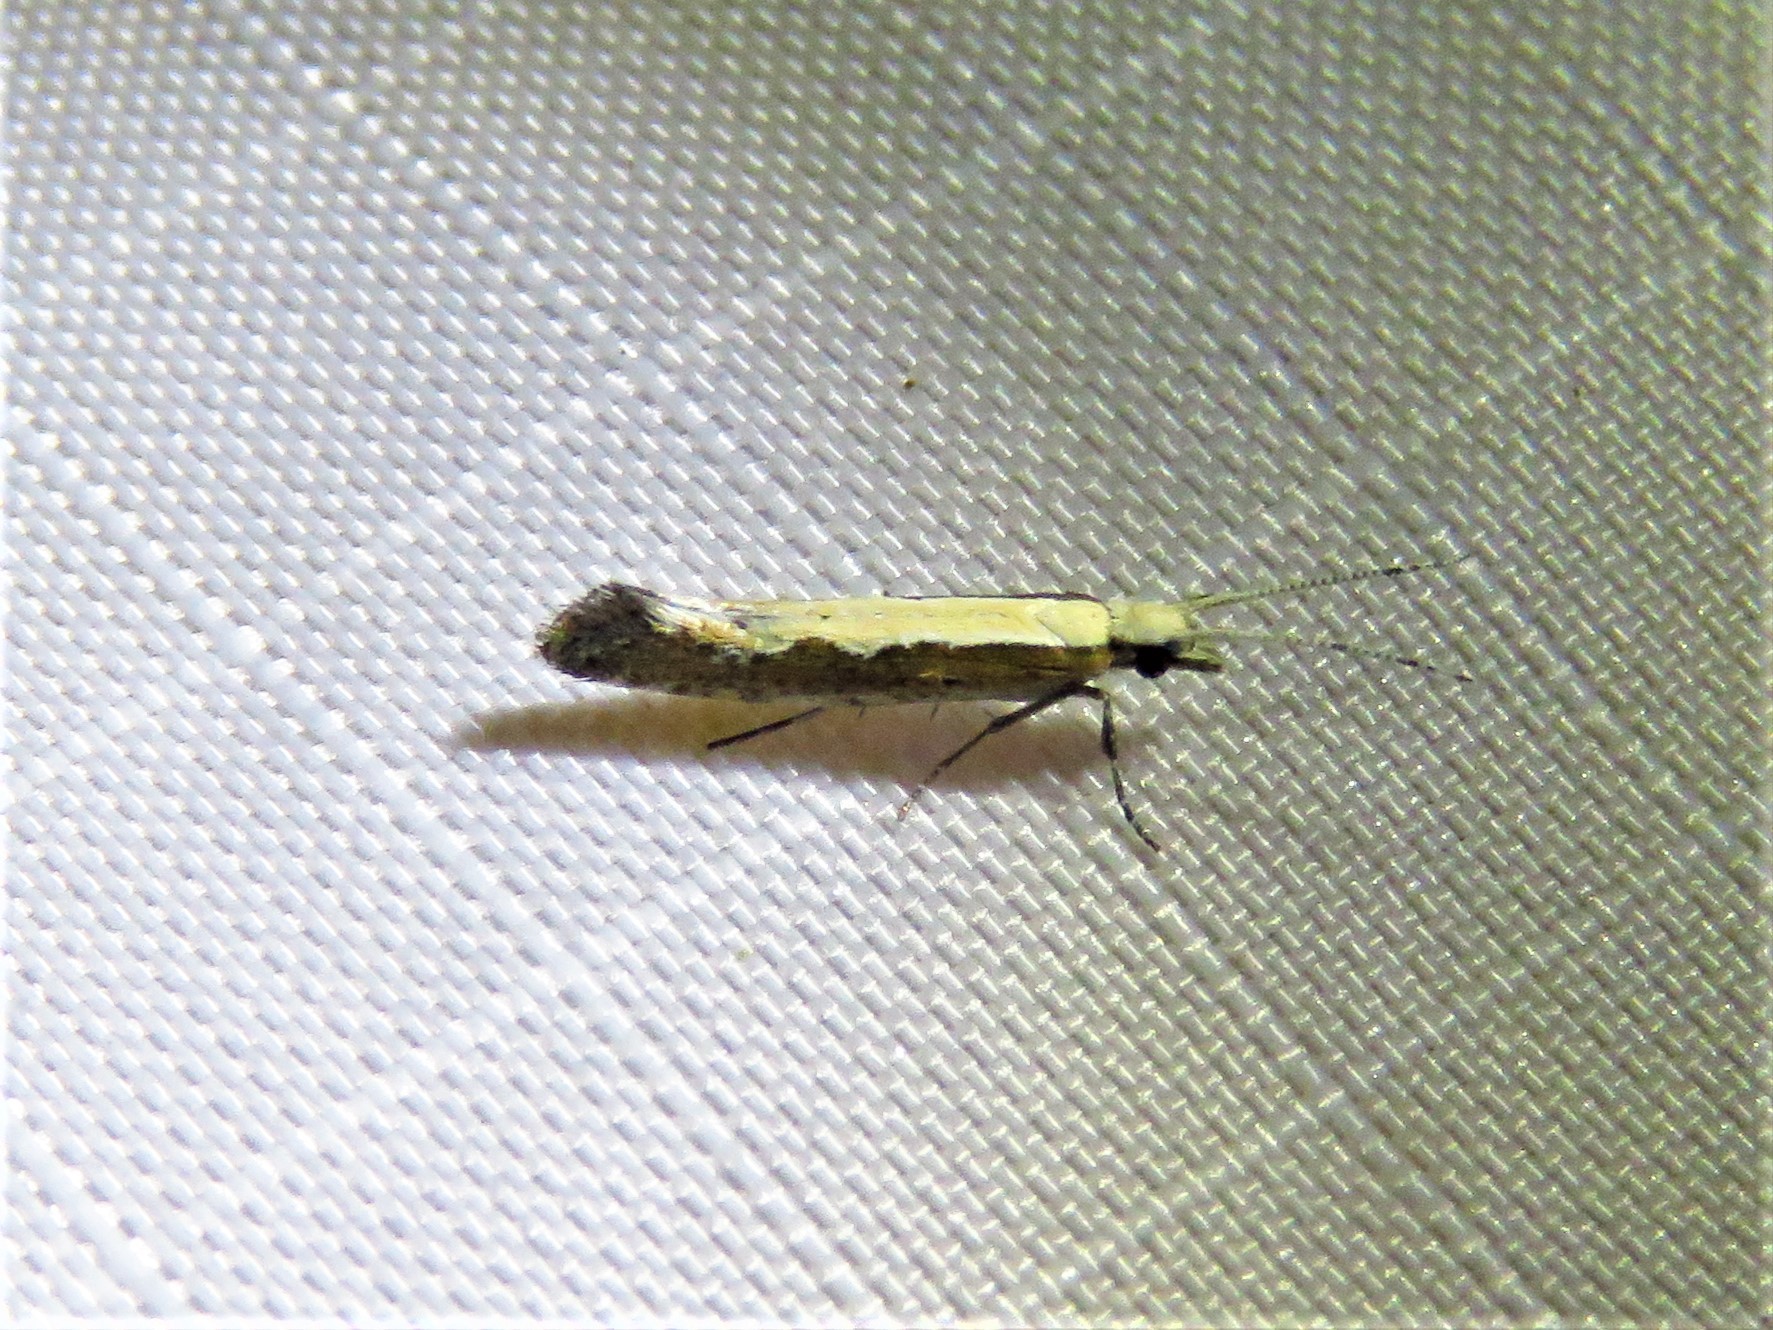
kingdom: Animalia
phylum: Arthropoda
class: Insecta
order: Lepidoptera
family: Plutellidae
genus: Plutella
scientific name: Plutella xylostella
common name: Diamond-back moth
